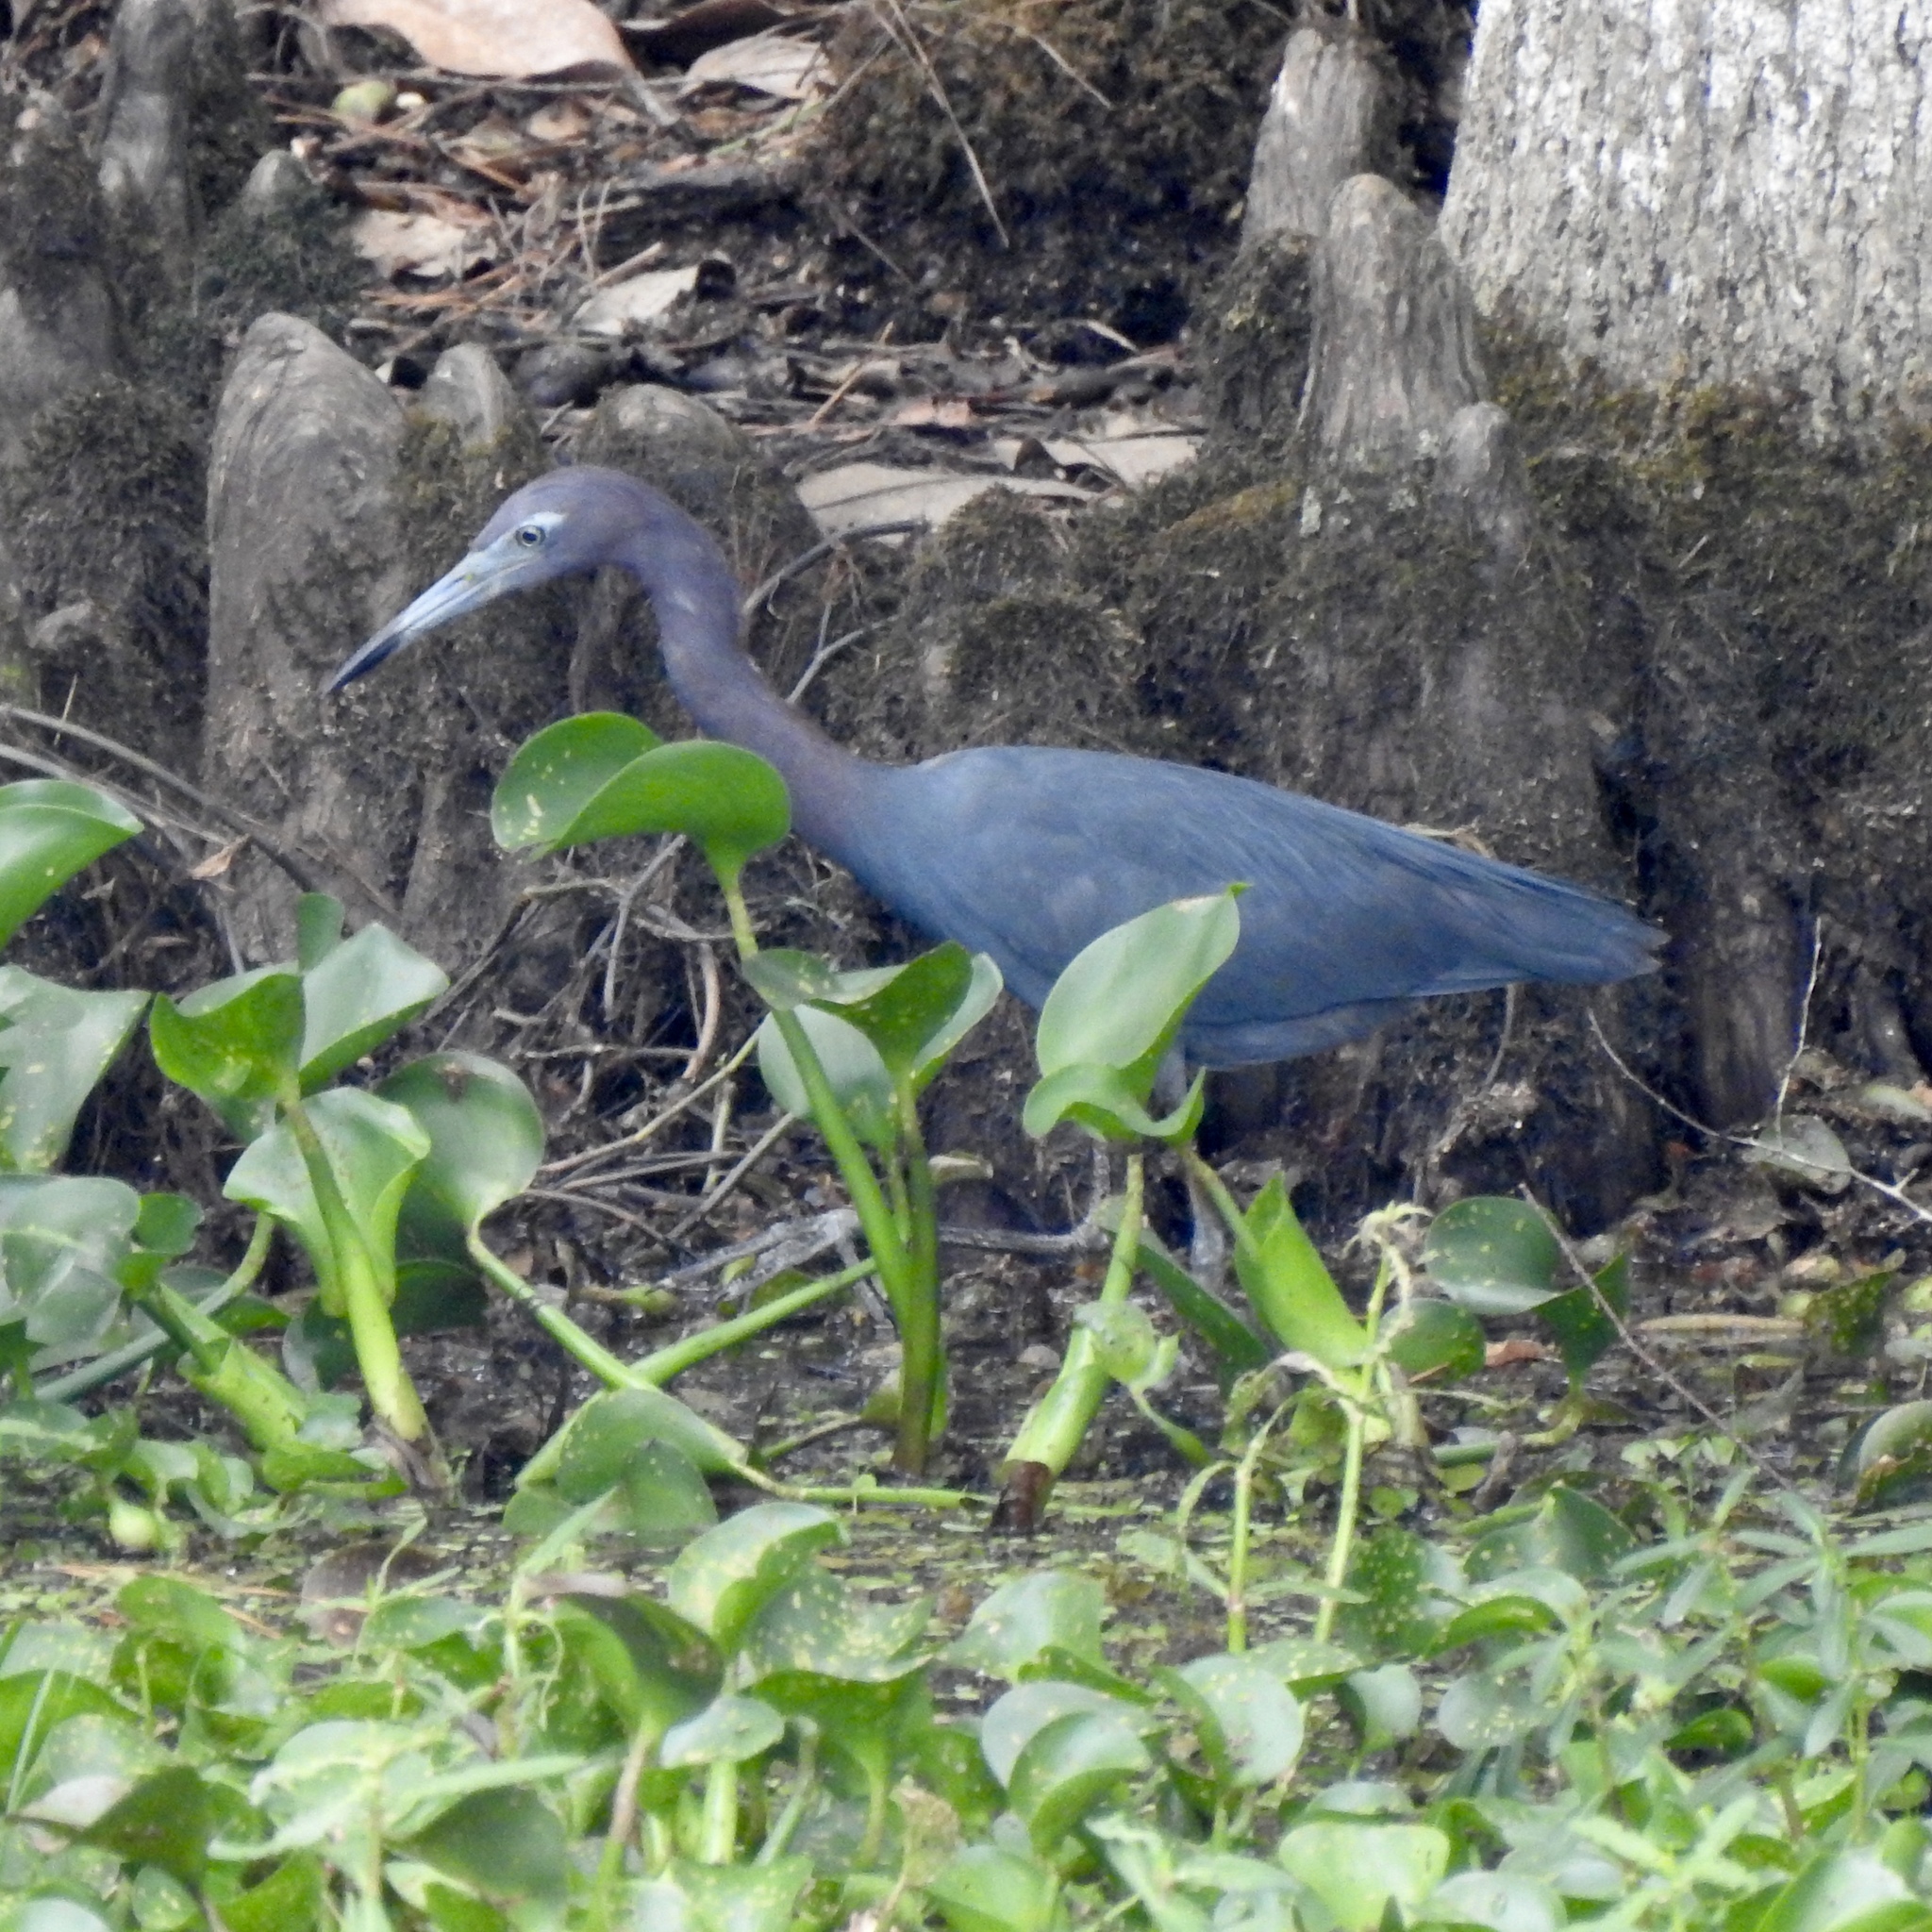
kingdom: Animalia
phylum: Chordata
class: Aves
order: Pelecaniformes
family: Ardeidae
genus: Egretta
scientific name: Egretta caerulea
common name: Little blue heron
